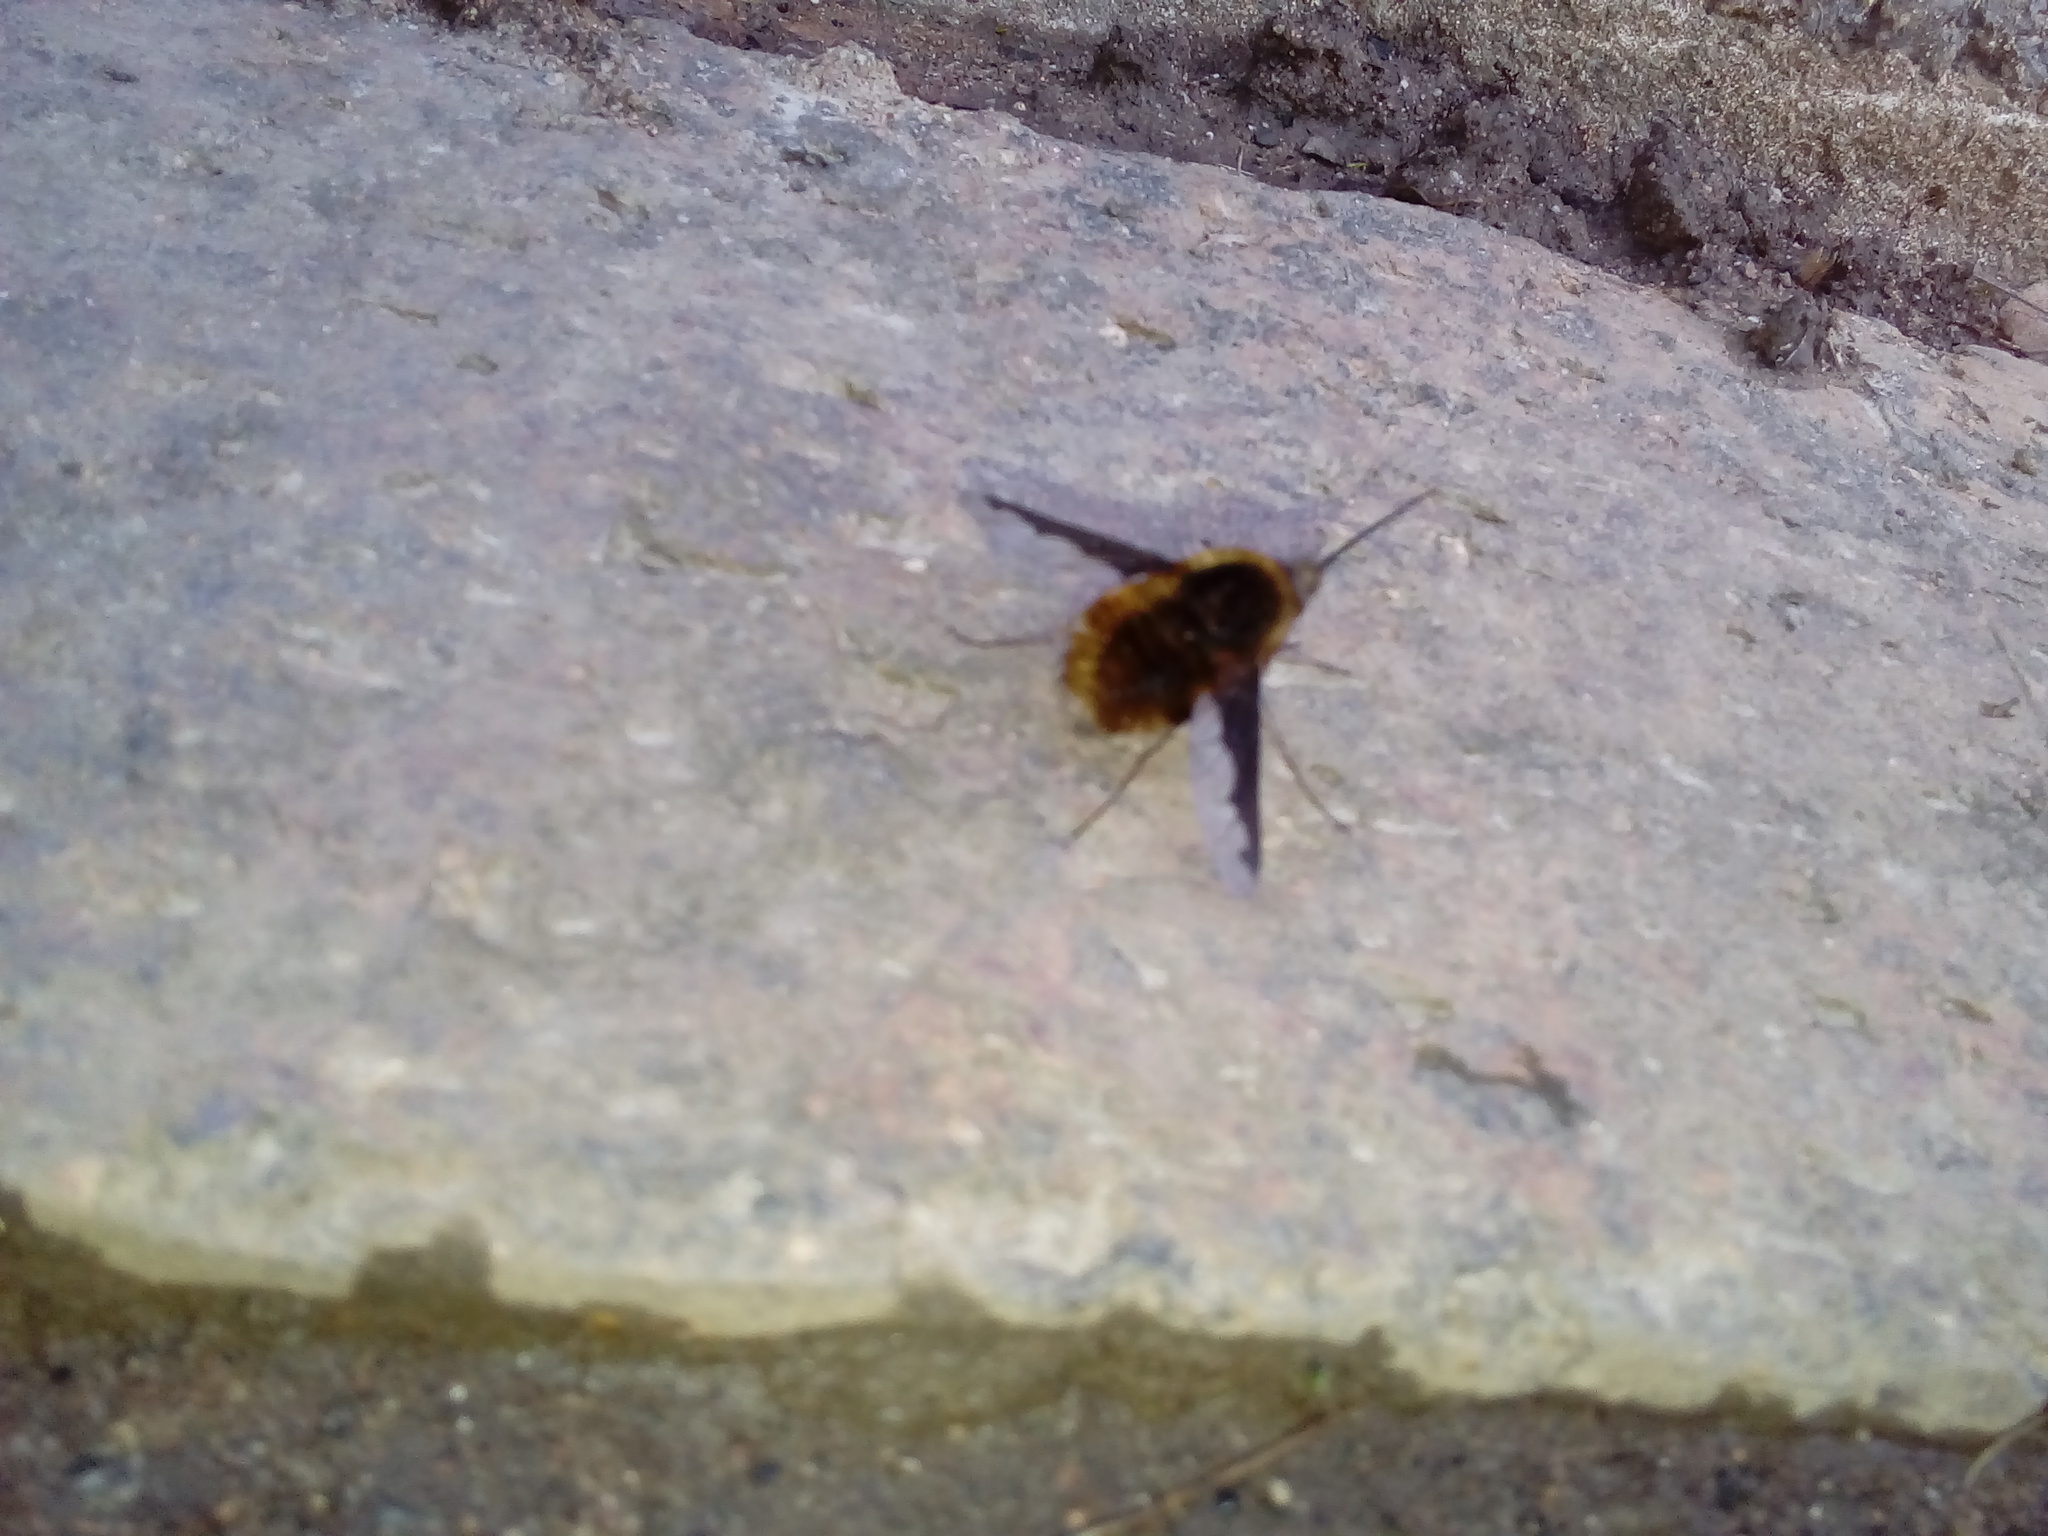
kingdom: Animalia
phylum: Arthropoda
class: Insecta
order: Diptera
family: Bombyliidae
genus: Bombylius
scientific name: Bombylius major
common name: Bee fly
